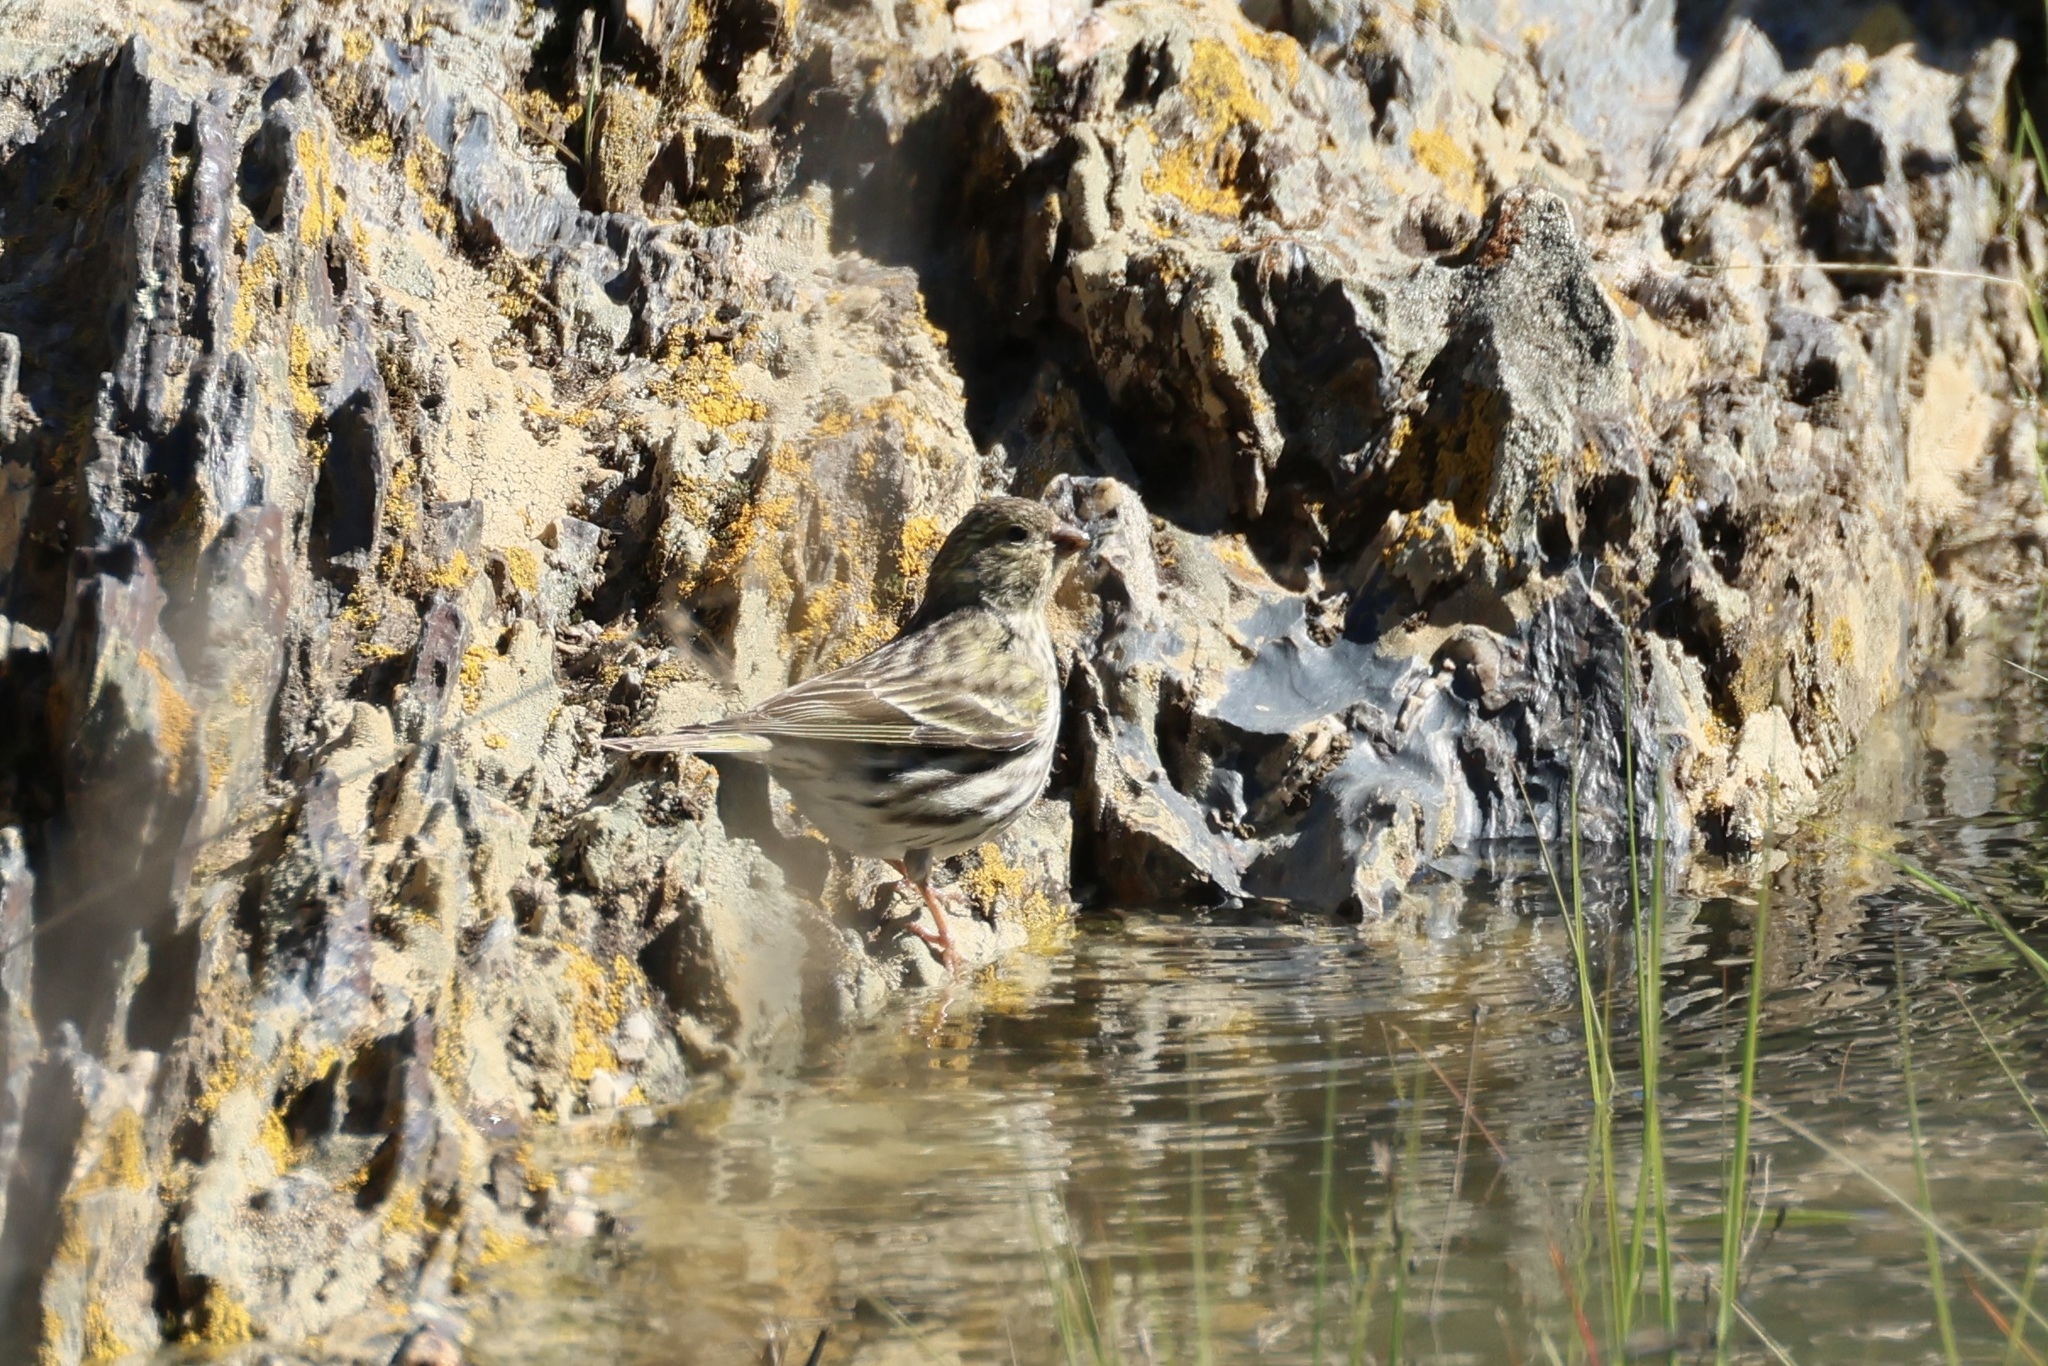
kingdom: Animalia
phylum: Chordata
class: Aves
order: Passeriformes
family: Fringillidae
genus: Serinus
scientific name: Serinus serinus
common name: European serin
